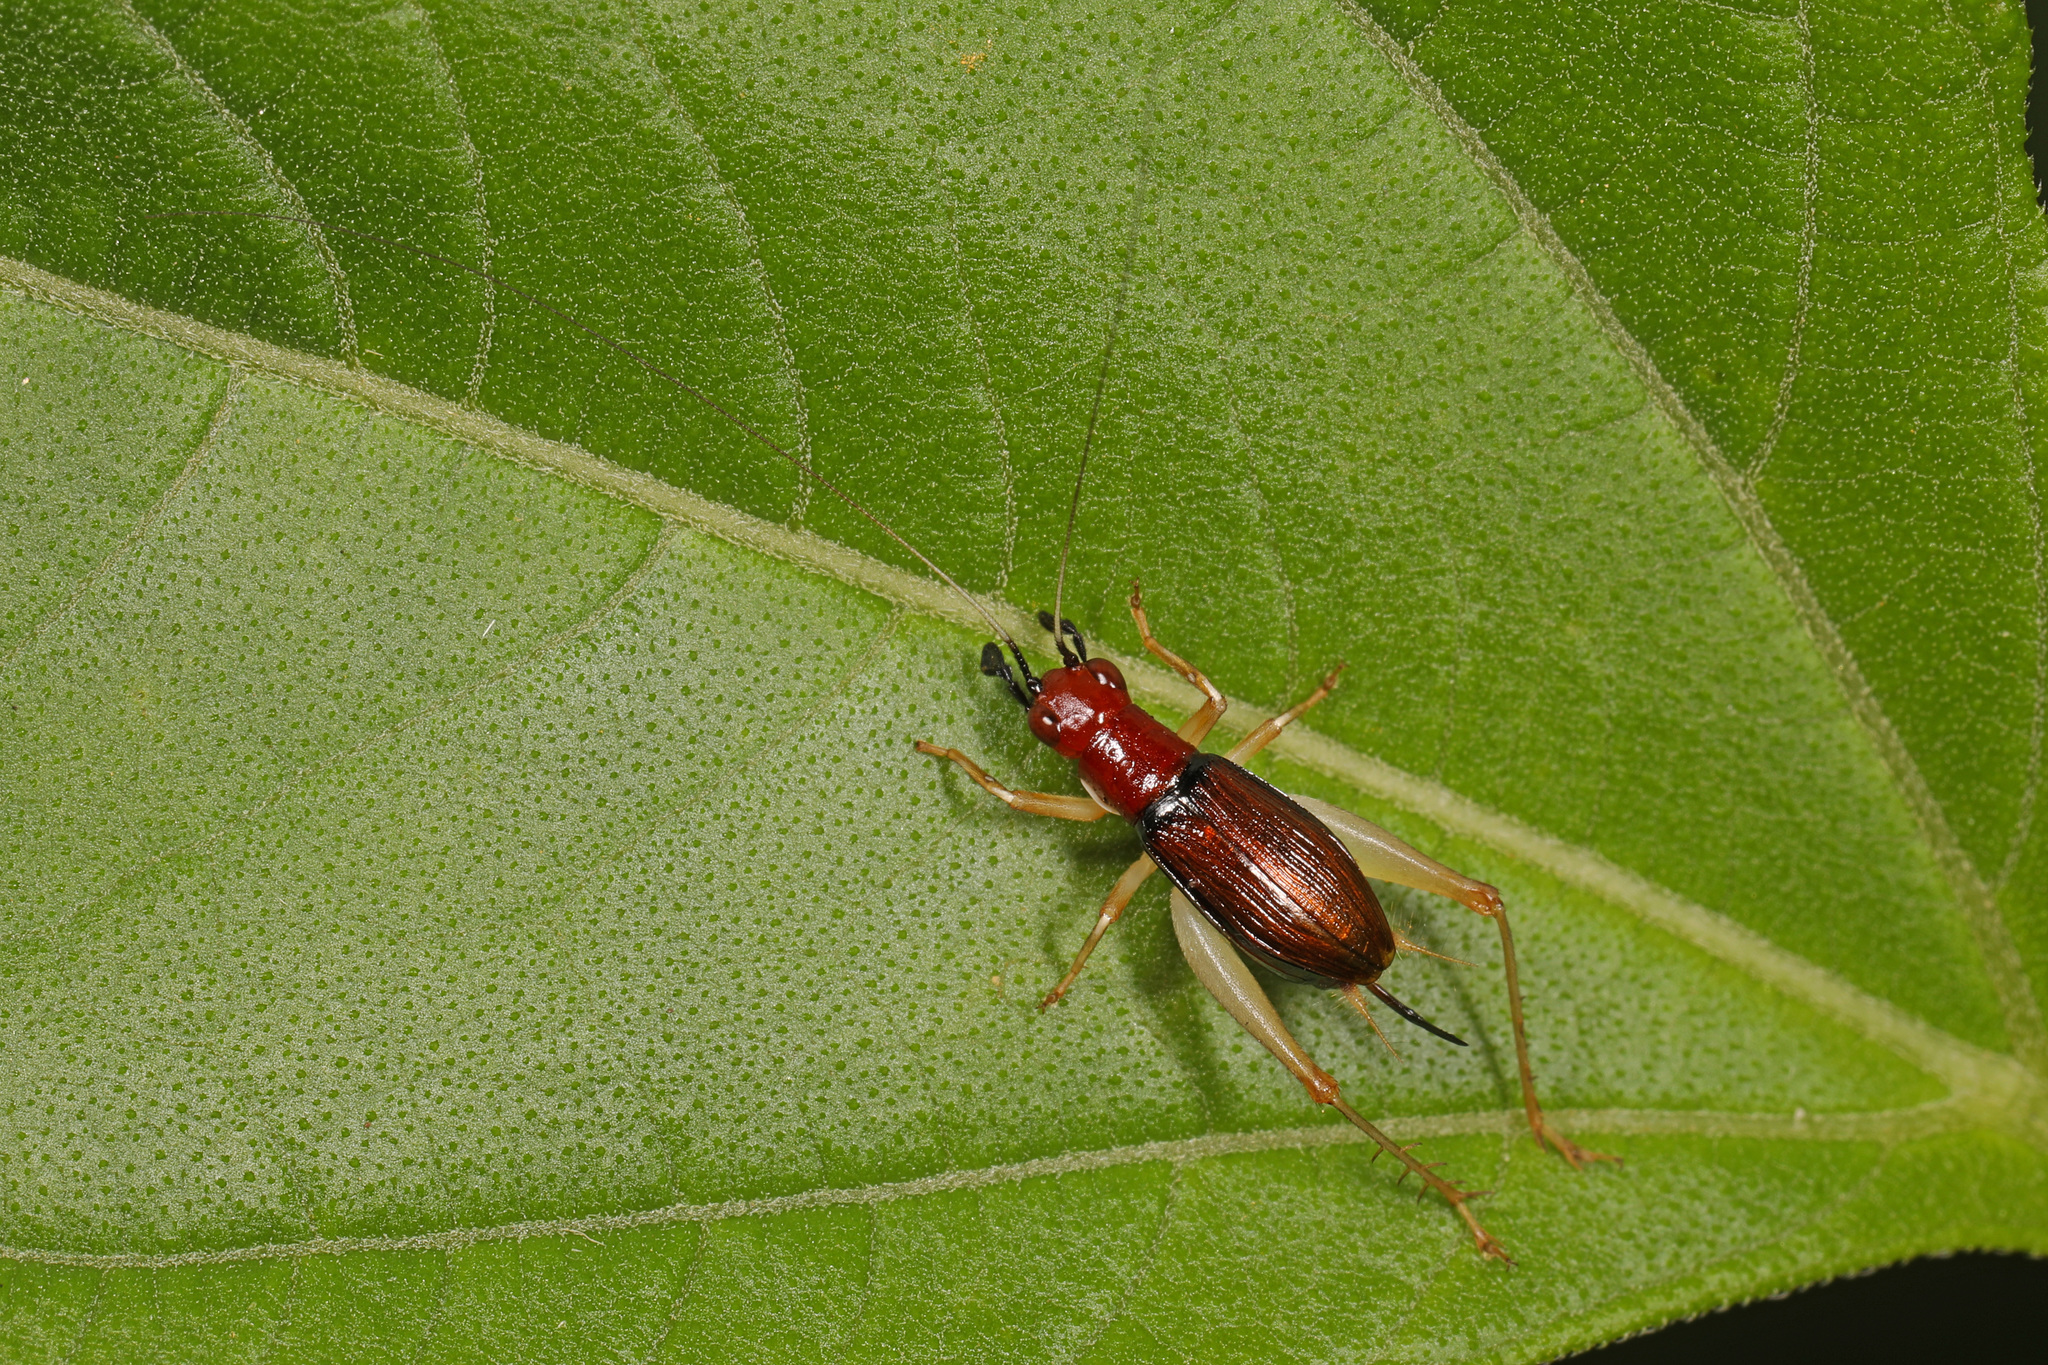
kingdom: Animalia
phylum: Arthropoda
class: Insecta
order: Orthoptera
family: Trigonidiidae
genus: Phyllopalpus
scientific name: Phyllopalpus pulchellus
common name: Handsome trig
